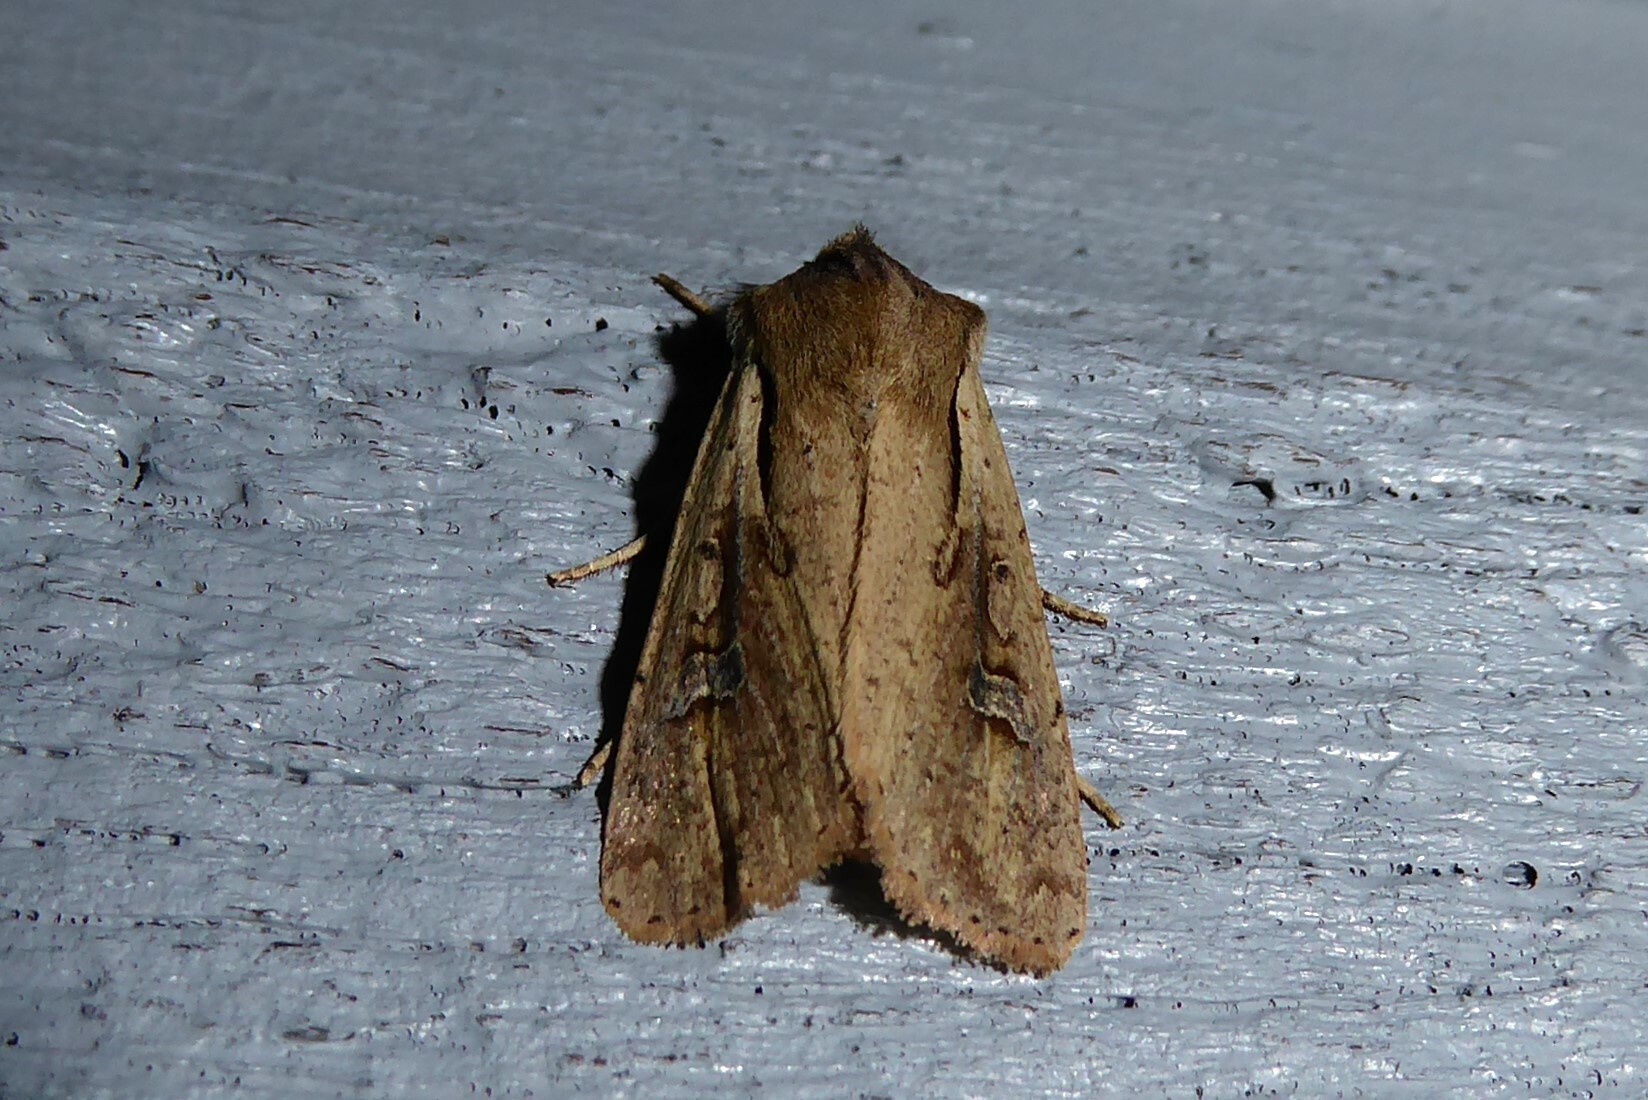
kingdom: Animalia
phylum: Arthropoda
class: Insecta
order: Lepidoptera
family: Noctuidae
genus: Ichneutica
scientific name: Ichneutica atristriga
